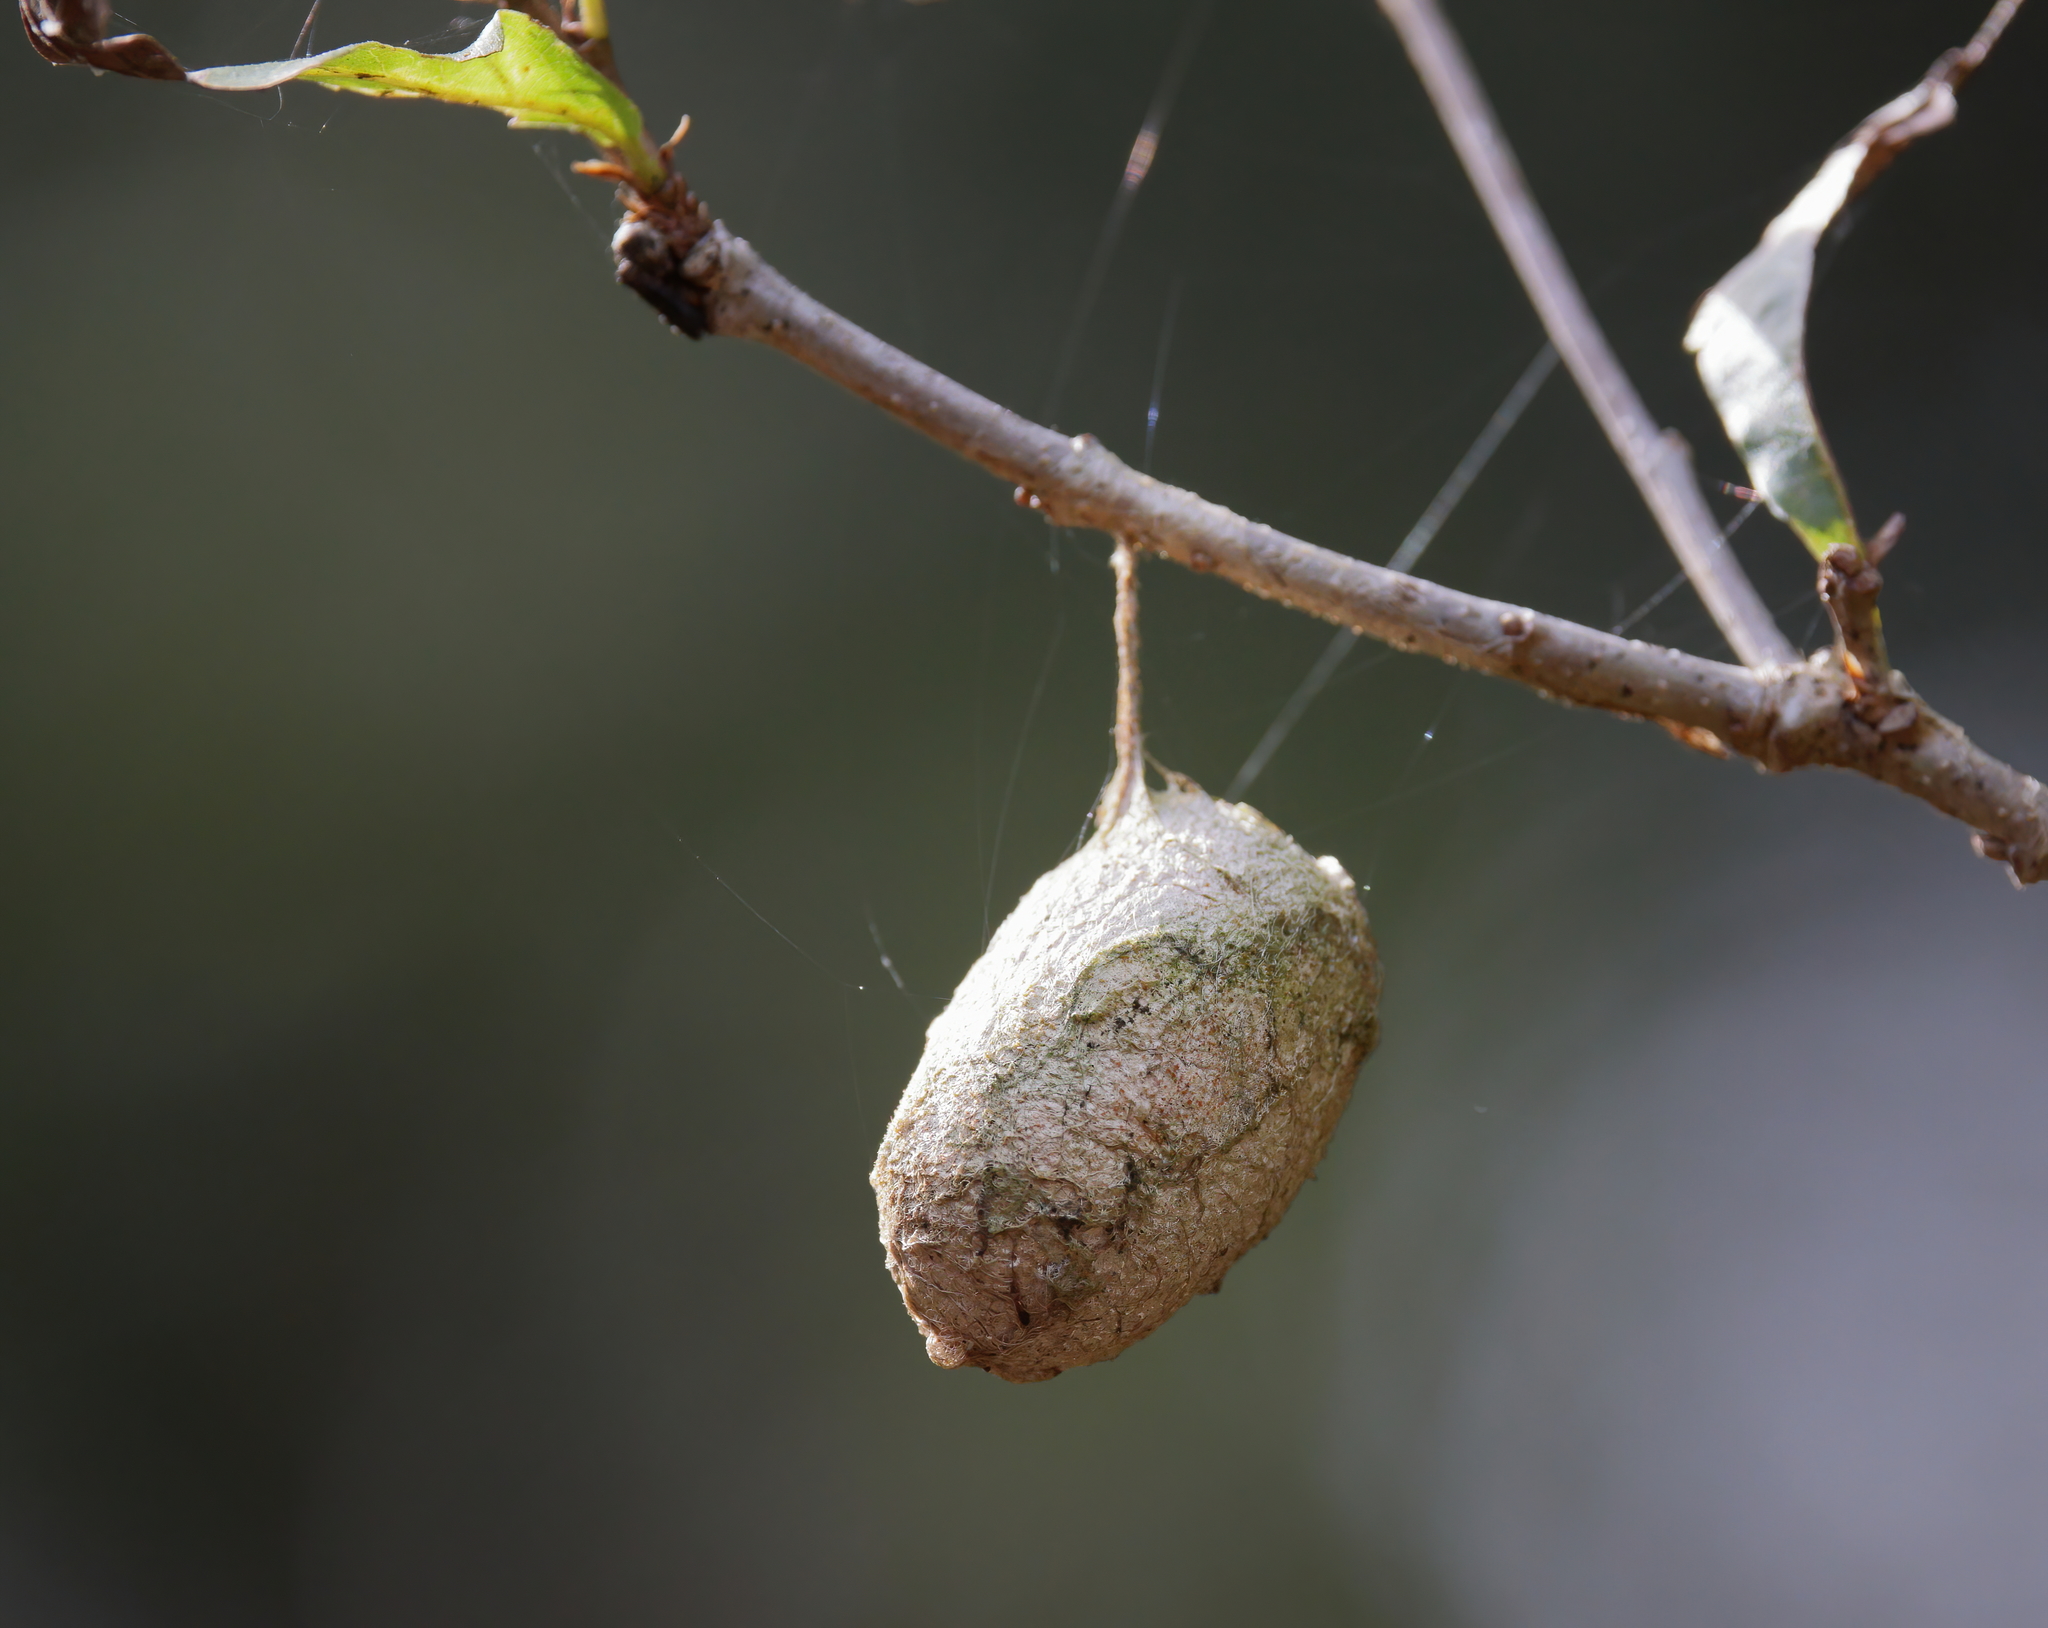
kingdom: Animalia
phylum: Arthropoda
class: Insecta
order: Lepidoptera
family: Saturniidae
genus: Antheraea
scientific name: Antheraea polyphemus
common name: Polyphemus moth
